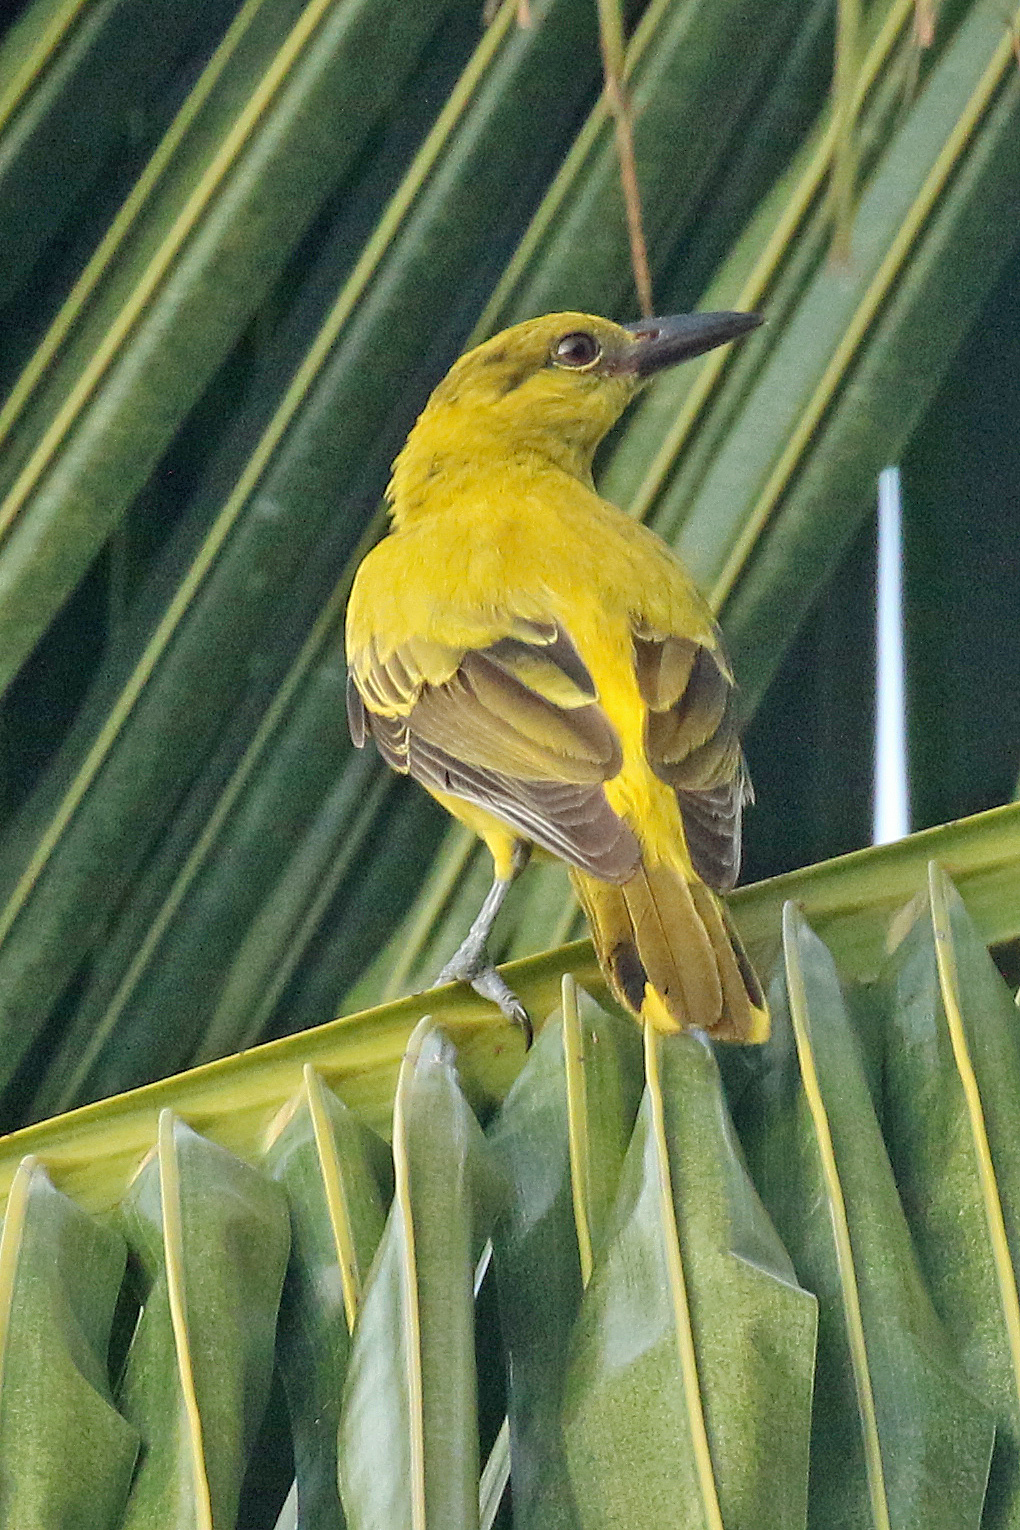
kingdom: Animalia
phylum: Chordata
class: Aves
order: Passeriformes
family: Oriolidae
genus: Oriolus
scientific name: Oriolus chinensis
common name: Black-naped oriole
